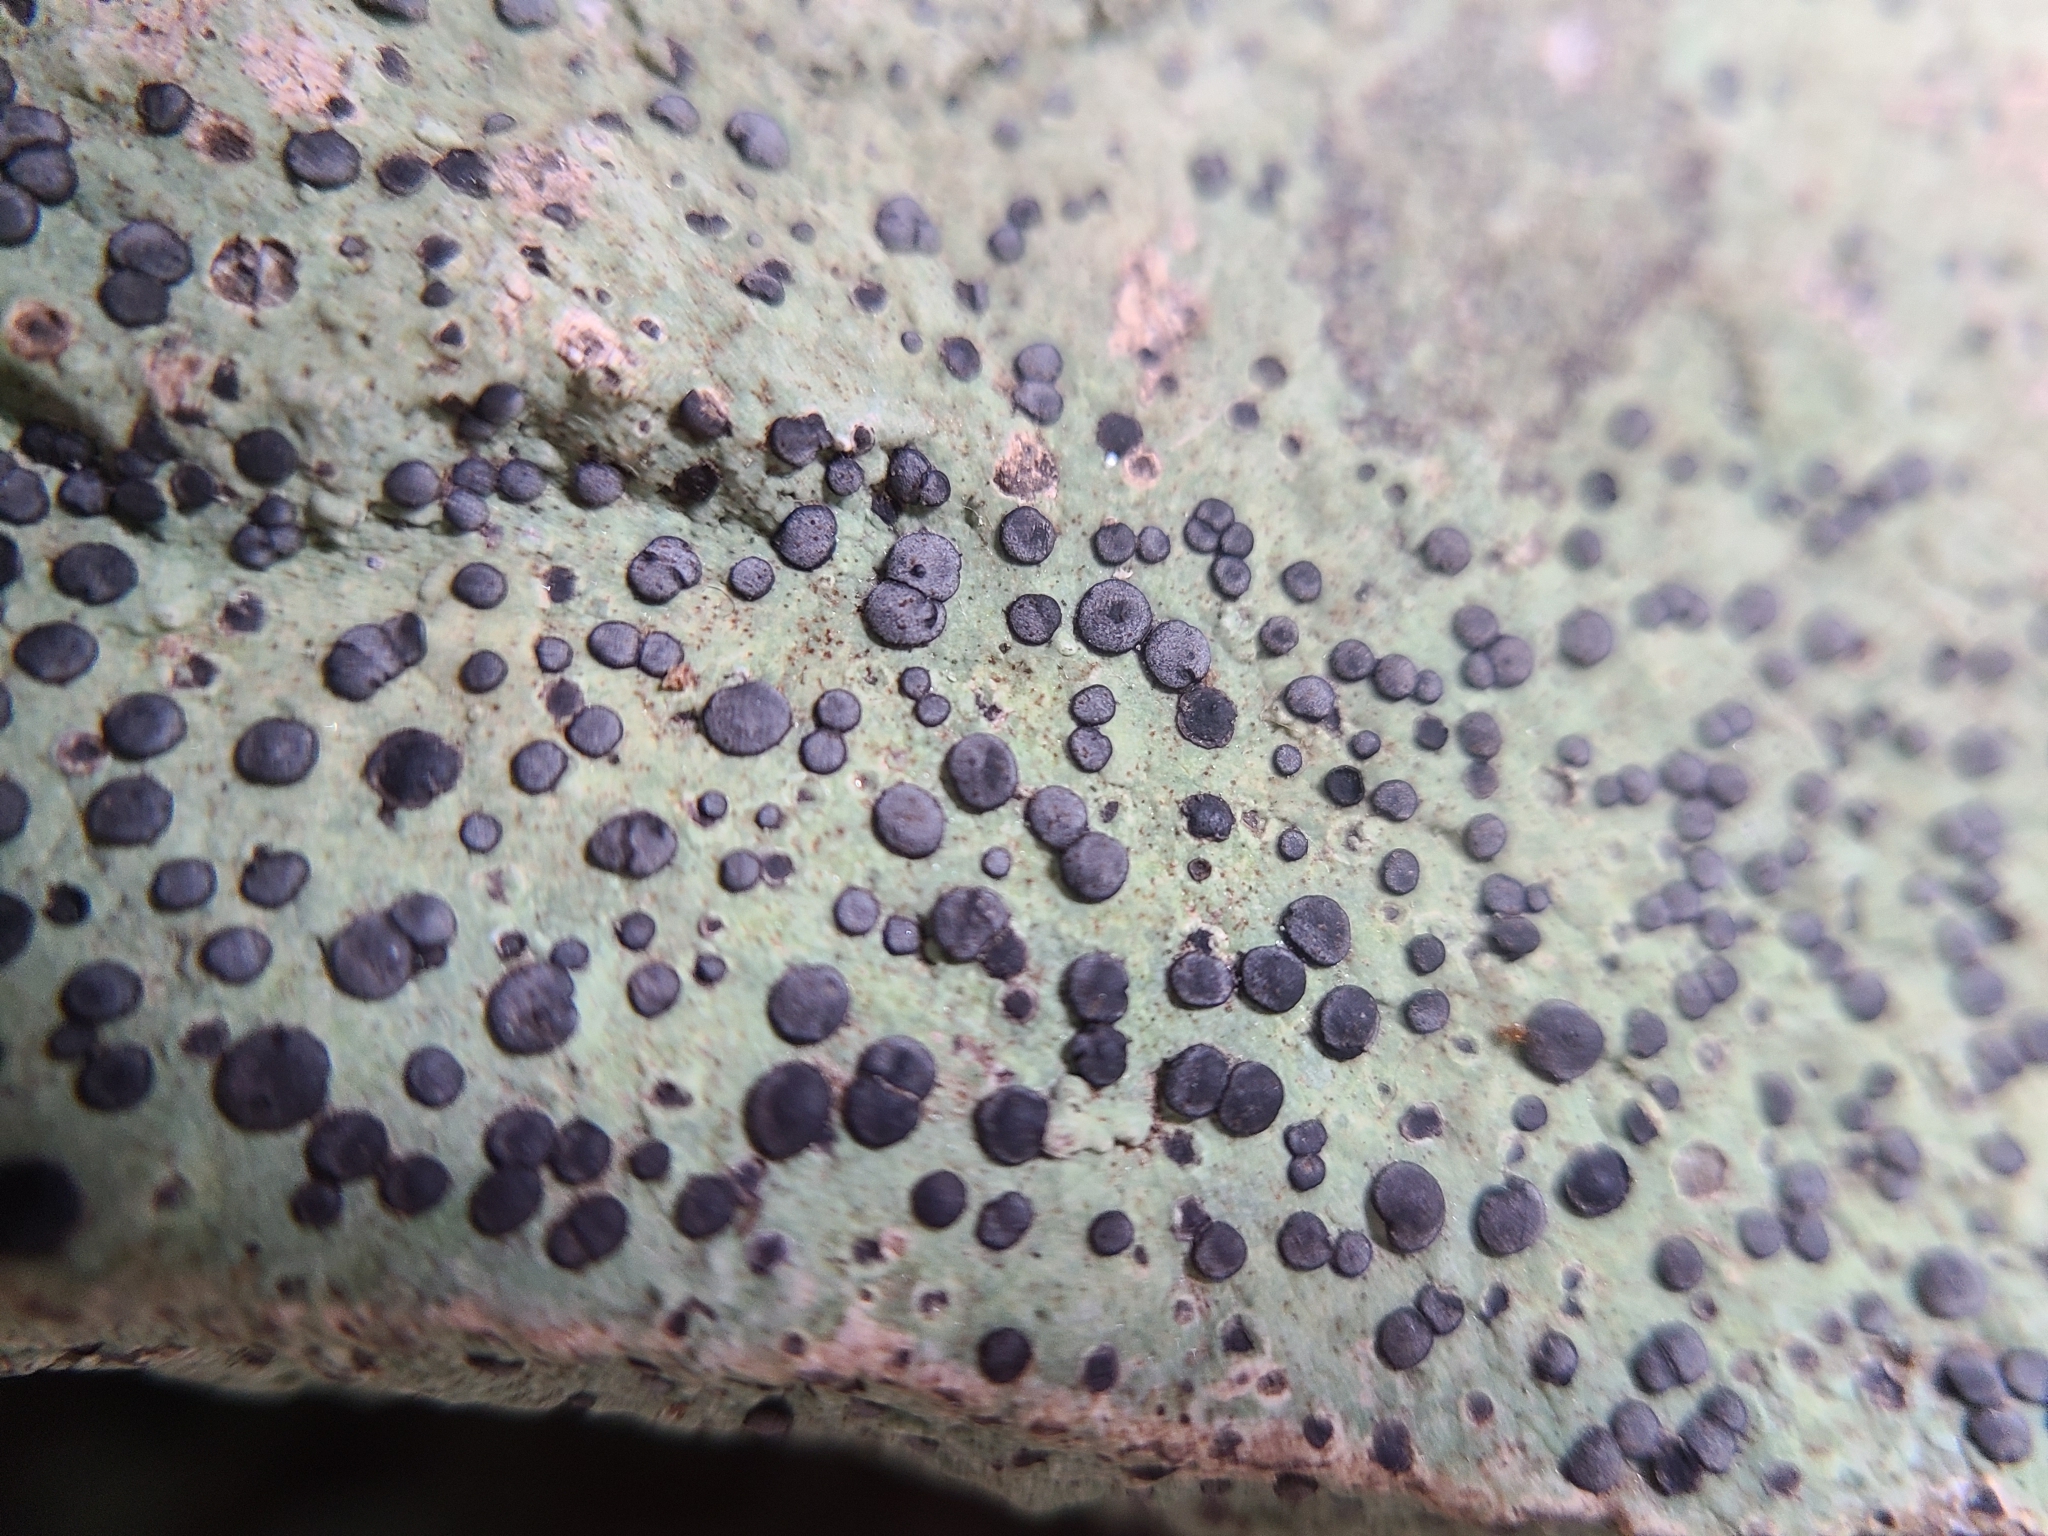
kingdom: Fungi
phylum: Ascomycota
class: Lecanoromycetes
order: Lecideales
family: Lecideaceae
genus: Porpidia
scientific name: Porpidia albocaerulescens
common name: Smokey-eyed boulder lichen
